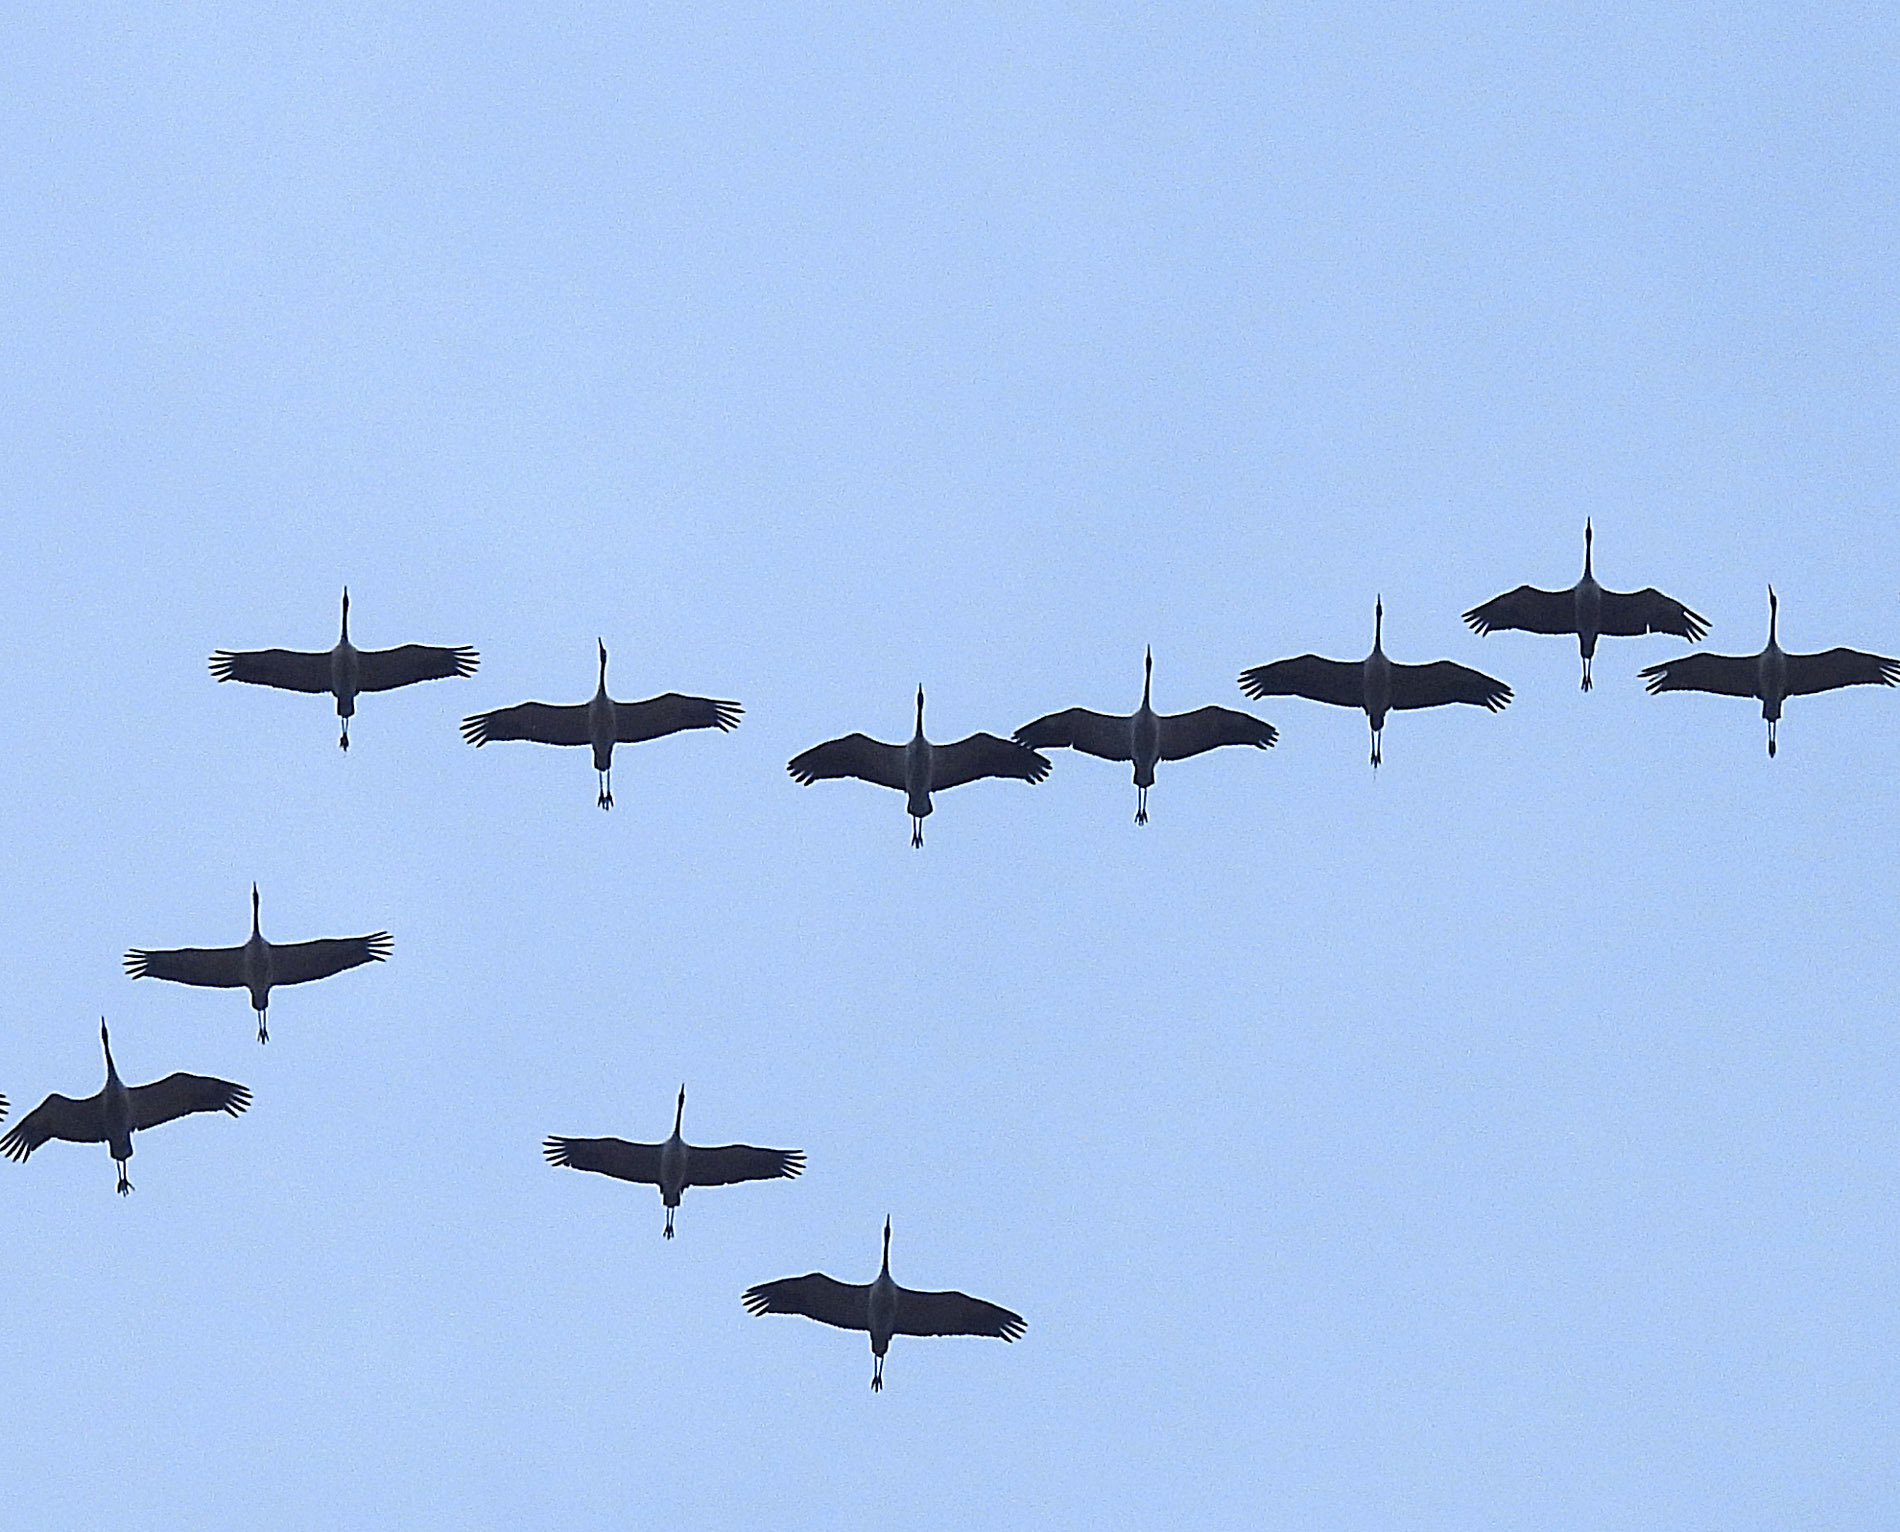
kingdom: Animalia
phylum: Chordata
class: Aves
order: Gruiformes
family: Gruidae
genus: Grus
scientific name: Grus grus
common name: Common crane
